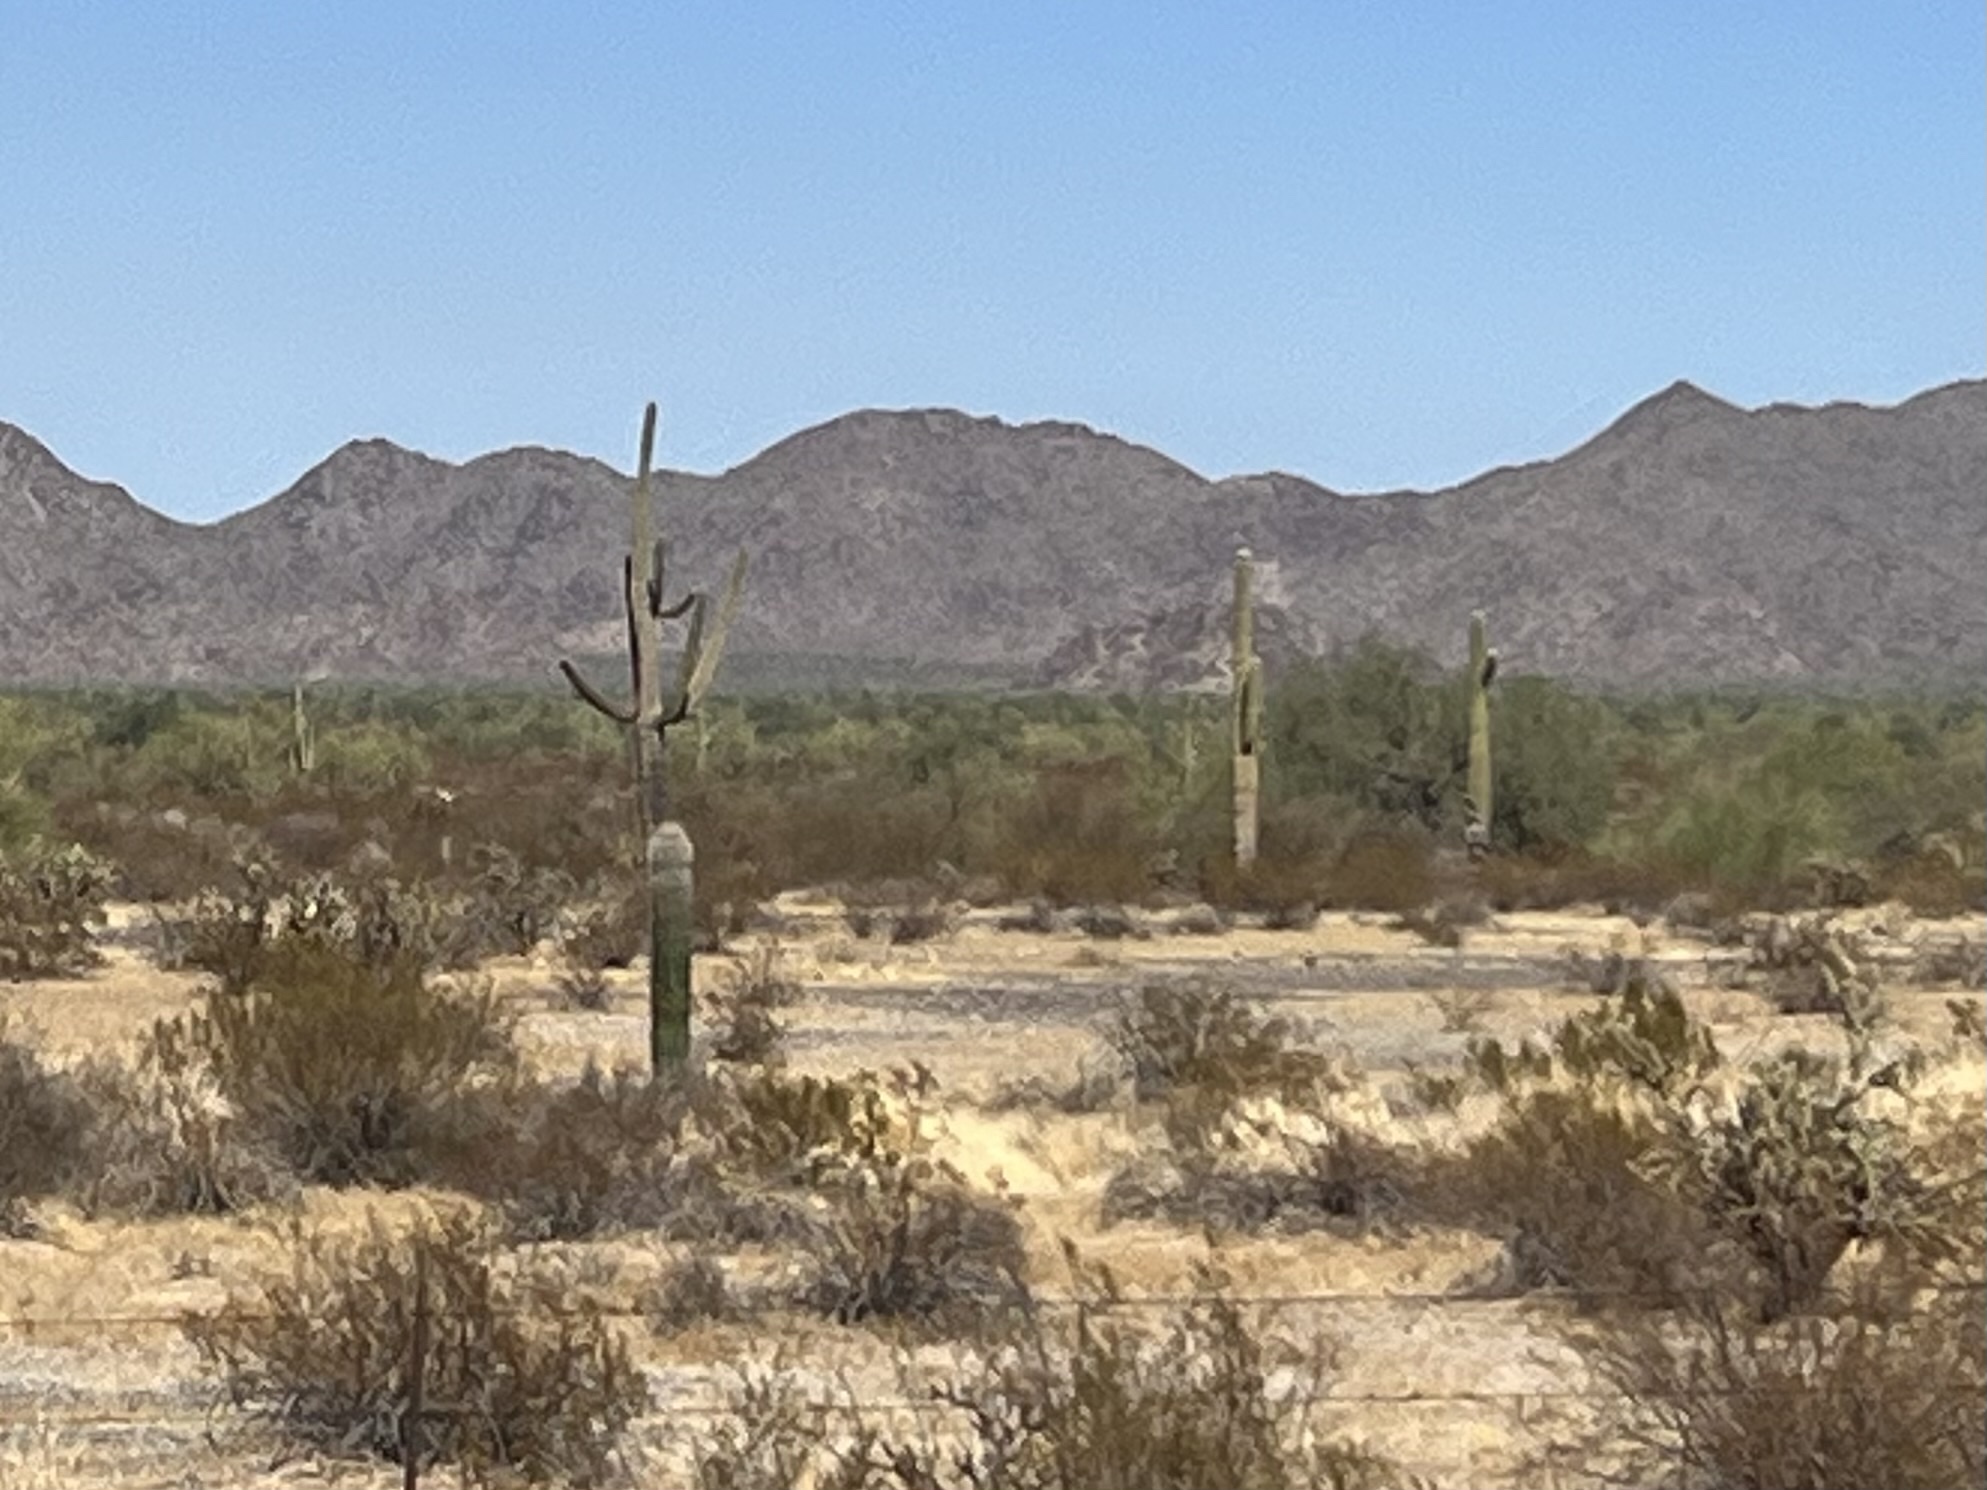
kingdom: Plantae
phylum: Tracheophyta
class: Magnoliopsida
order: Caryophyllales
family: Cactaceae
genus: Carnegiea
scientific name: Carnegiea gigantea
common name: Saguaro
